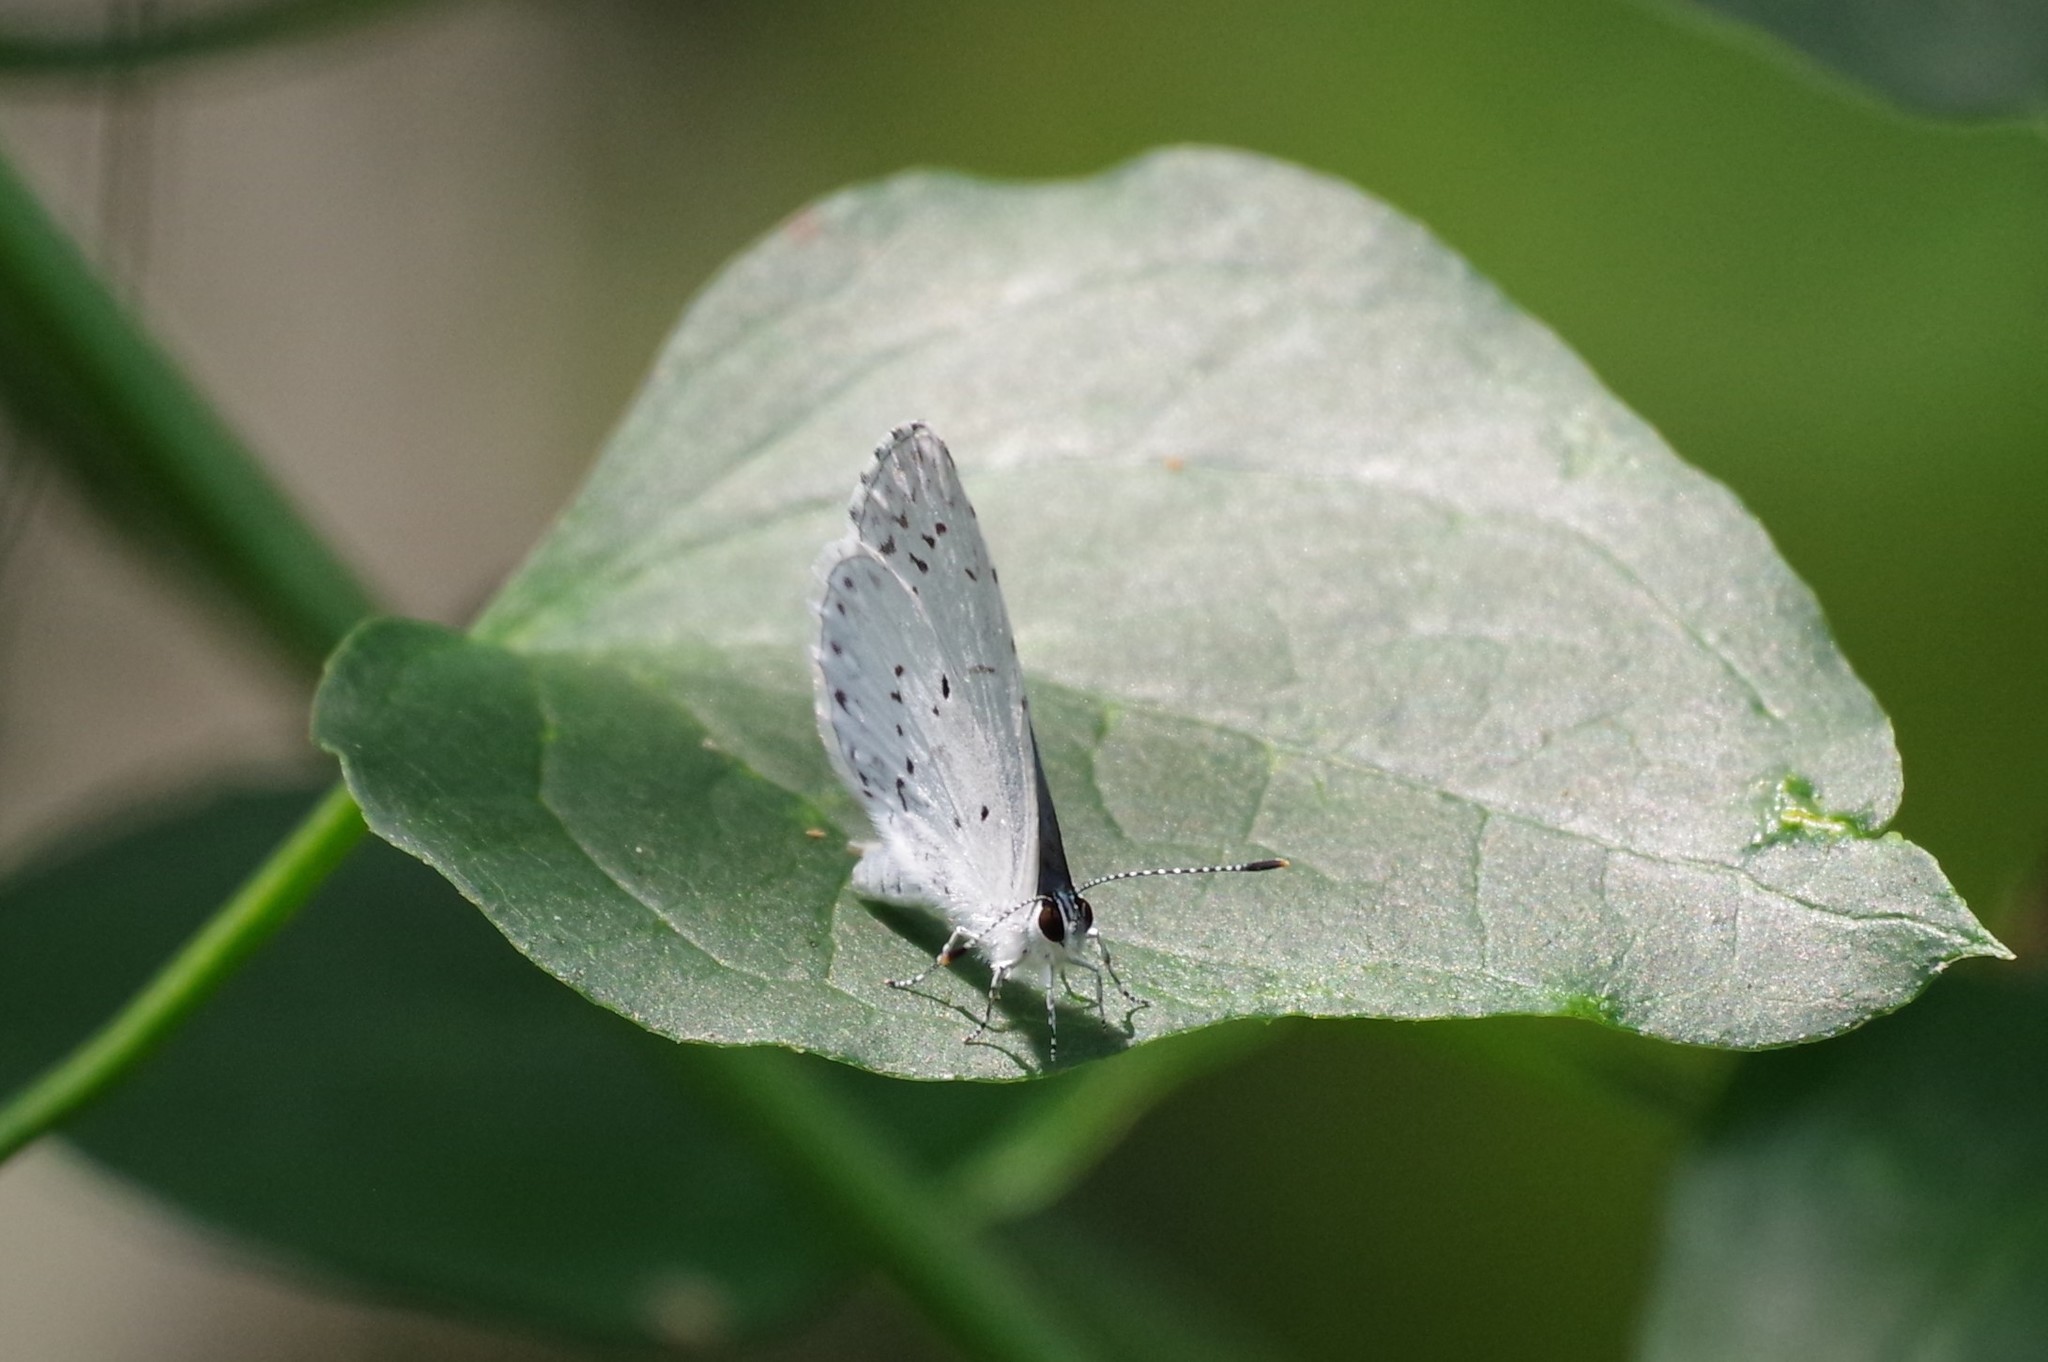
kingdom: Animalia
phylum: Arthropoda
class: Insecta
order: Lepidoptera
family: Lycaenidae
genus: Cyaniris
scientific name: Cyaniris neglecta
